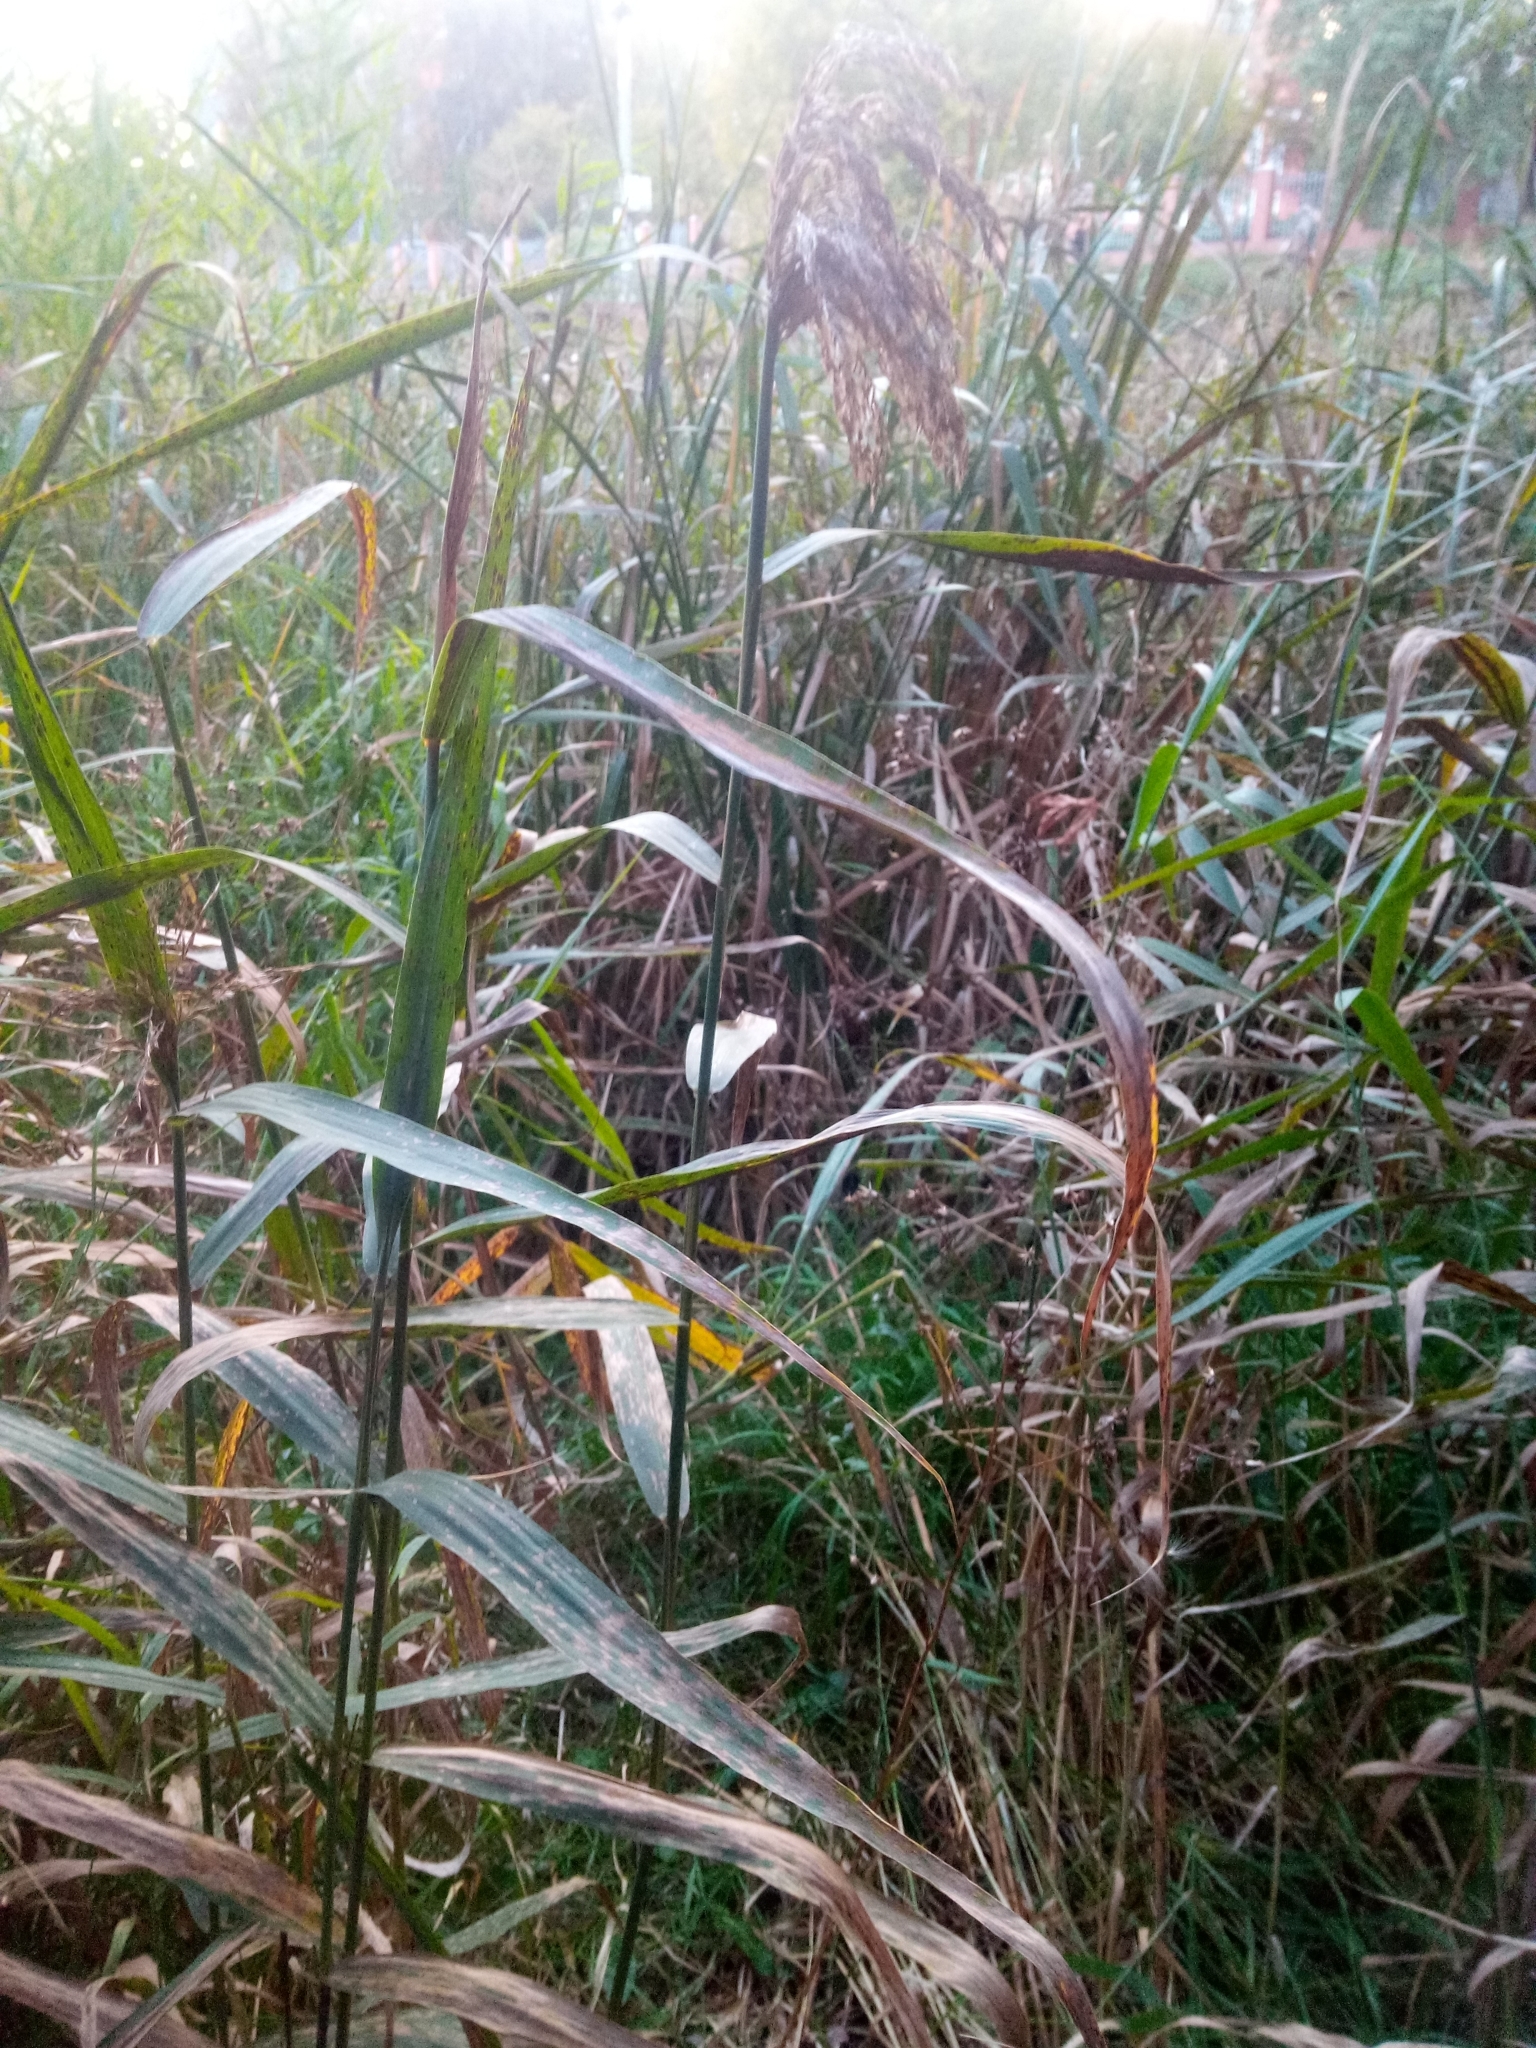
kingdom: Plantae
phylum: Tracheophyta
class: Liliopsida
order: Poales
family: Poaceae
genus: Phragmites
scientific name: Phragmites australis
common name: Common reed
